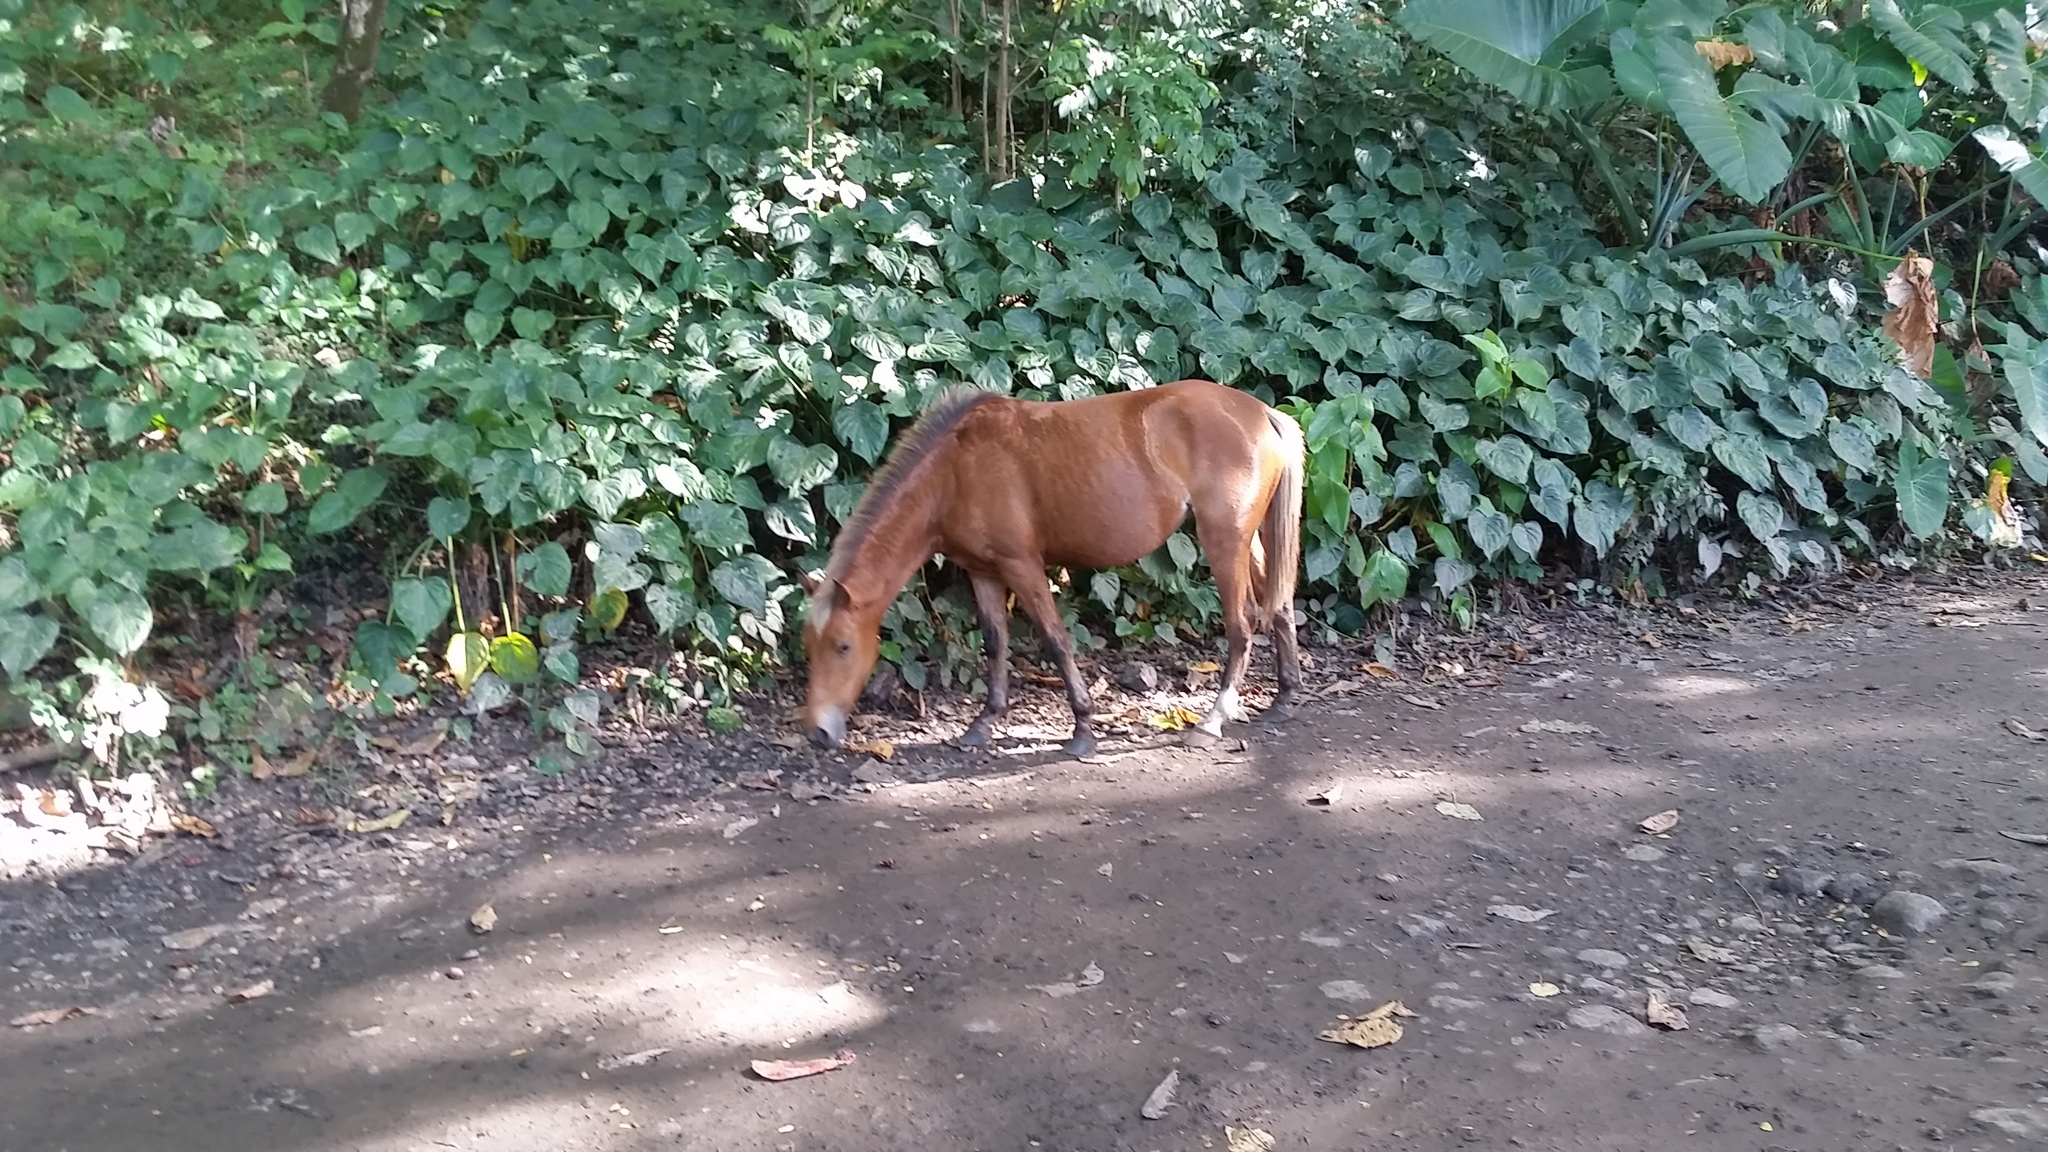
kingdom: Animalia
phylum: Chordata
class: Mammalia
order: Perissodactyla
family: Equidae
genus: Equus
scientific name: Equus caballus
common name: Horse
